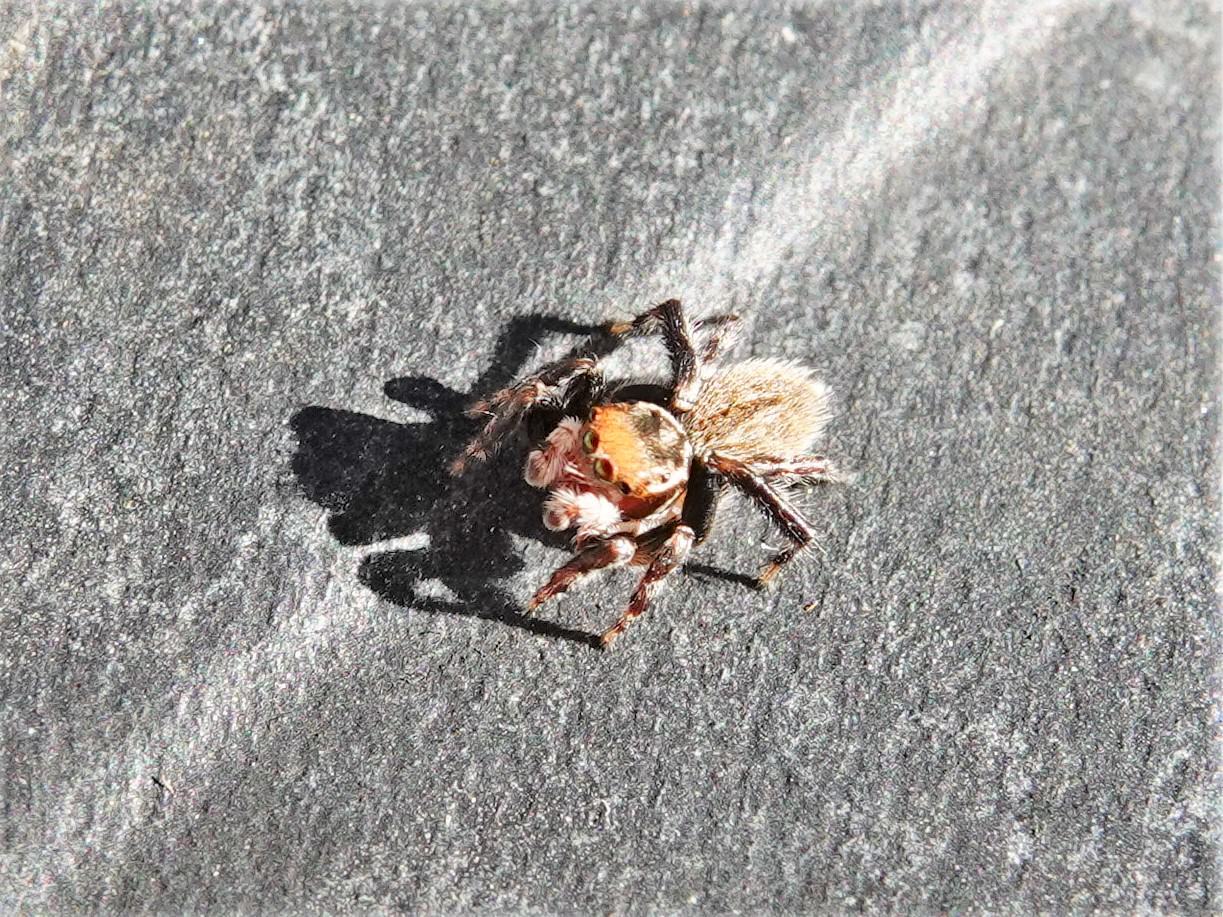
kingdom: Animalia
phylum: Arthropoda
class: Arachnida
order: Araneae
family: Salticidae
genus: Maratus
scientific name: Maratus griseus
